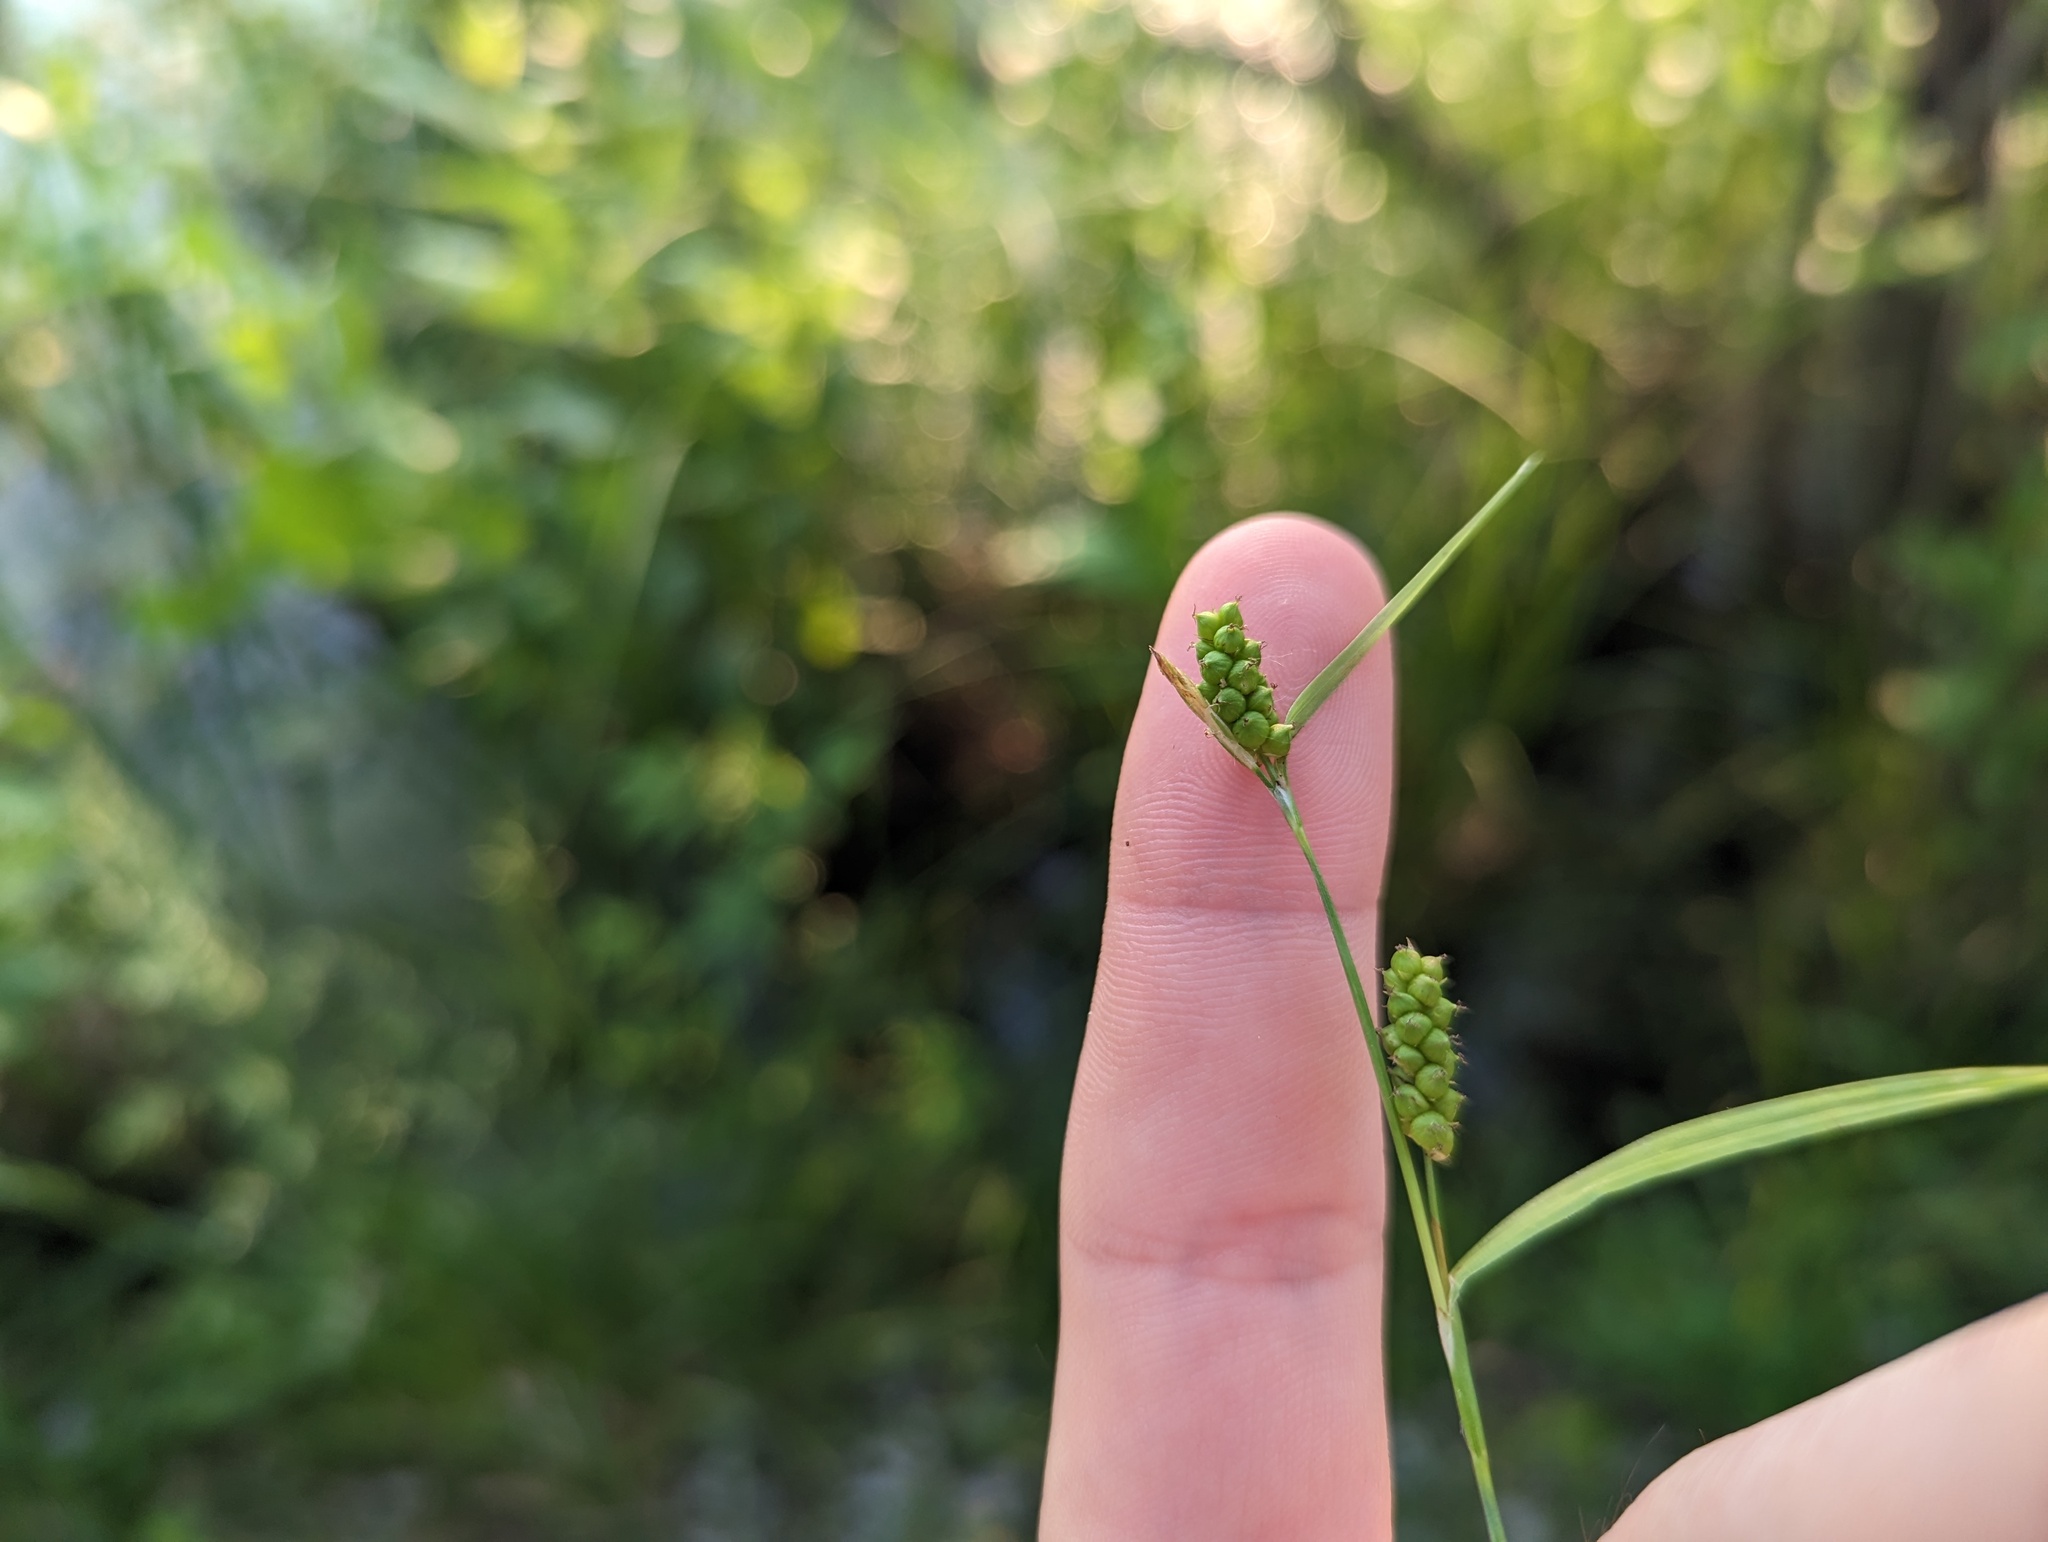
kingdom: Plantae
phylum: Tracheophyta
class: Liliopsida
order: Poales
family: Cyperaceae
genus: Carex
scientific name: Carex granularis
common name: Granular sedge
